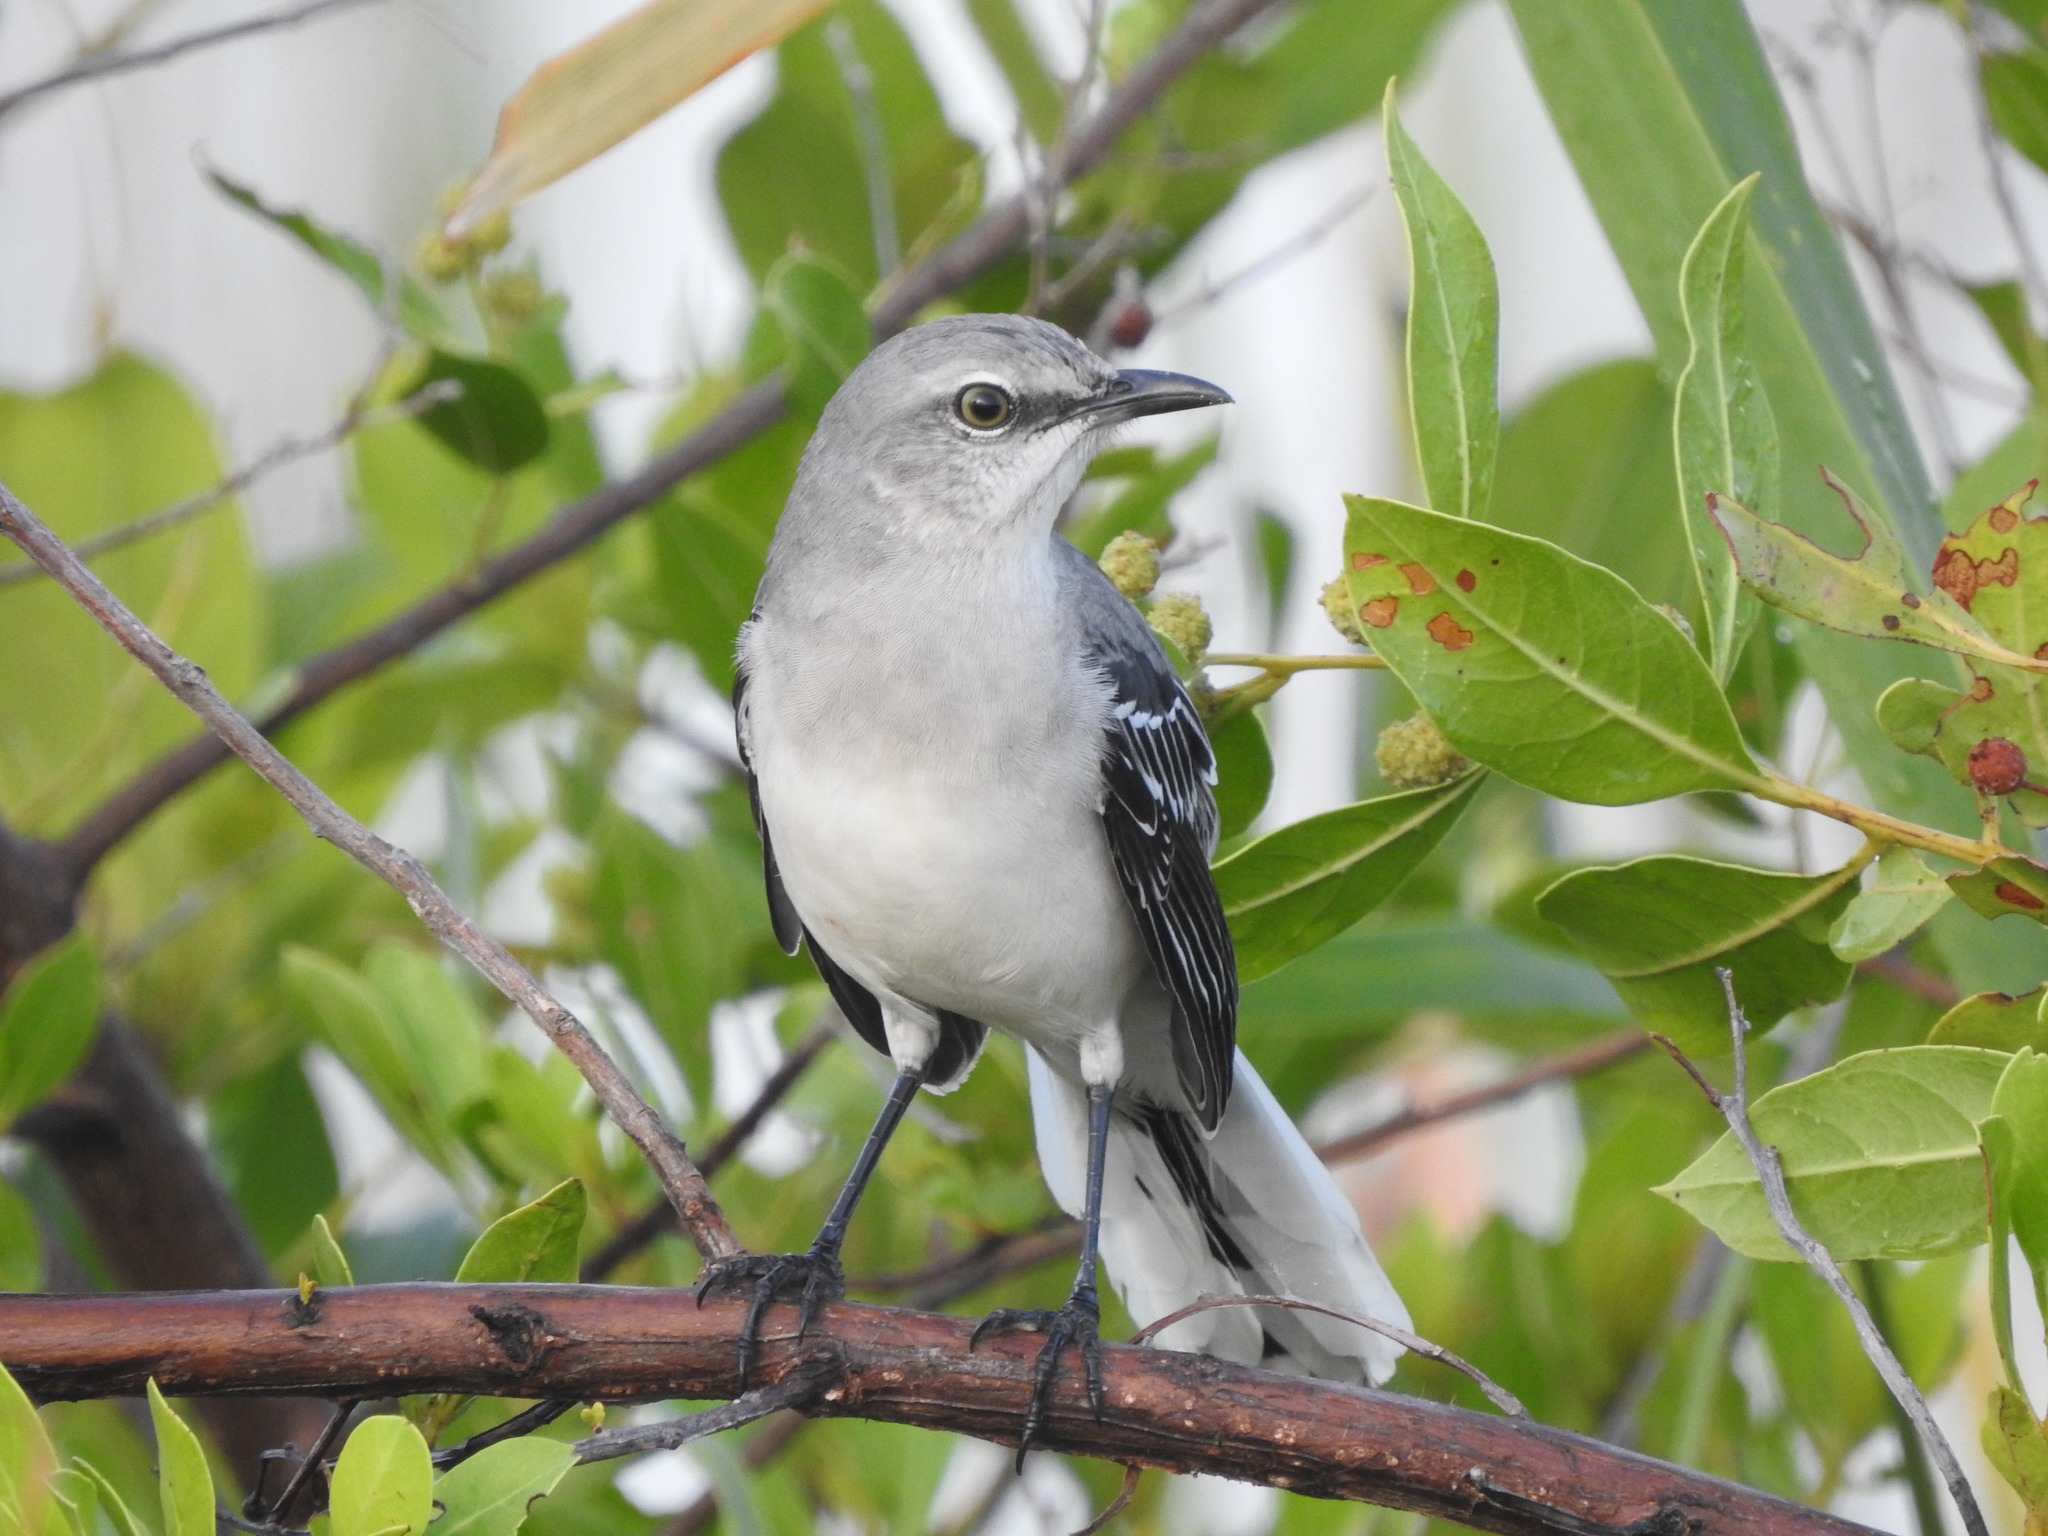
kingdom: Animalia
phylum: Chordata
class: Aves
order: Passeriformes
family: Mimidae
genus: Mimus
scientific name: Mimus gilvus
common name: Tropical mockingbird
